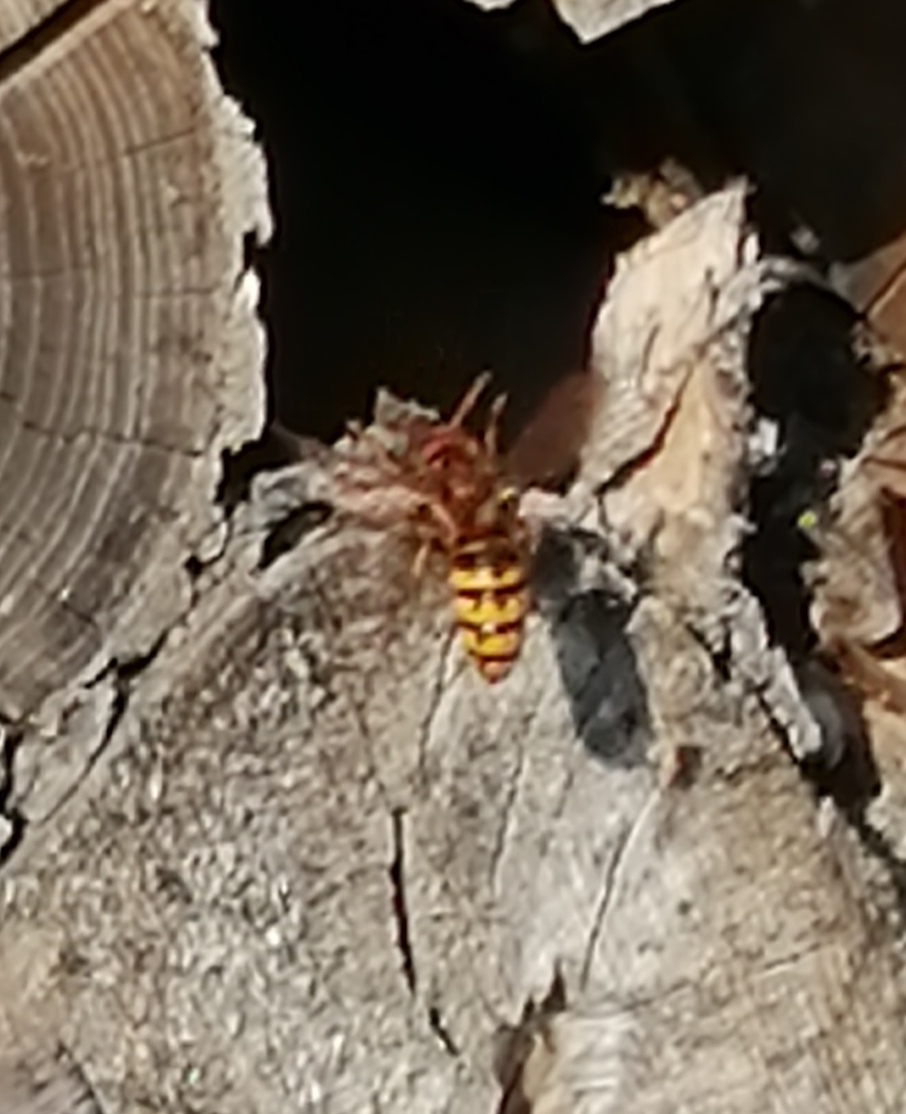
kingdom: Animalia
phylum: Arthropoda
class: Insecta
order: Hymenoptera
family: Vespidae
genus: Vespa
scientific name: Vespa crabro
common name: Hornet
